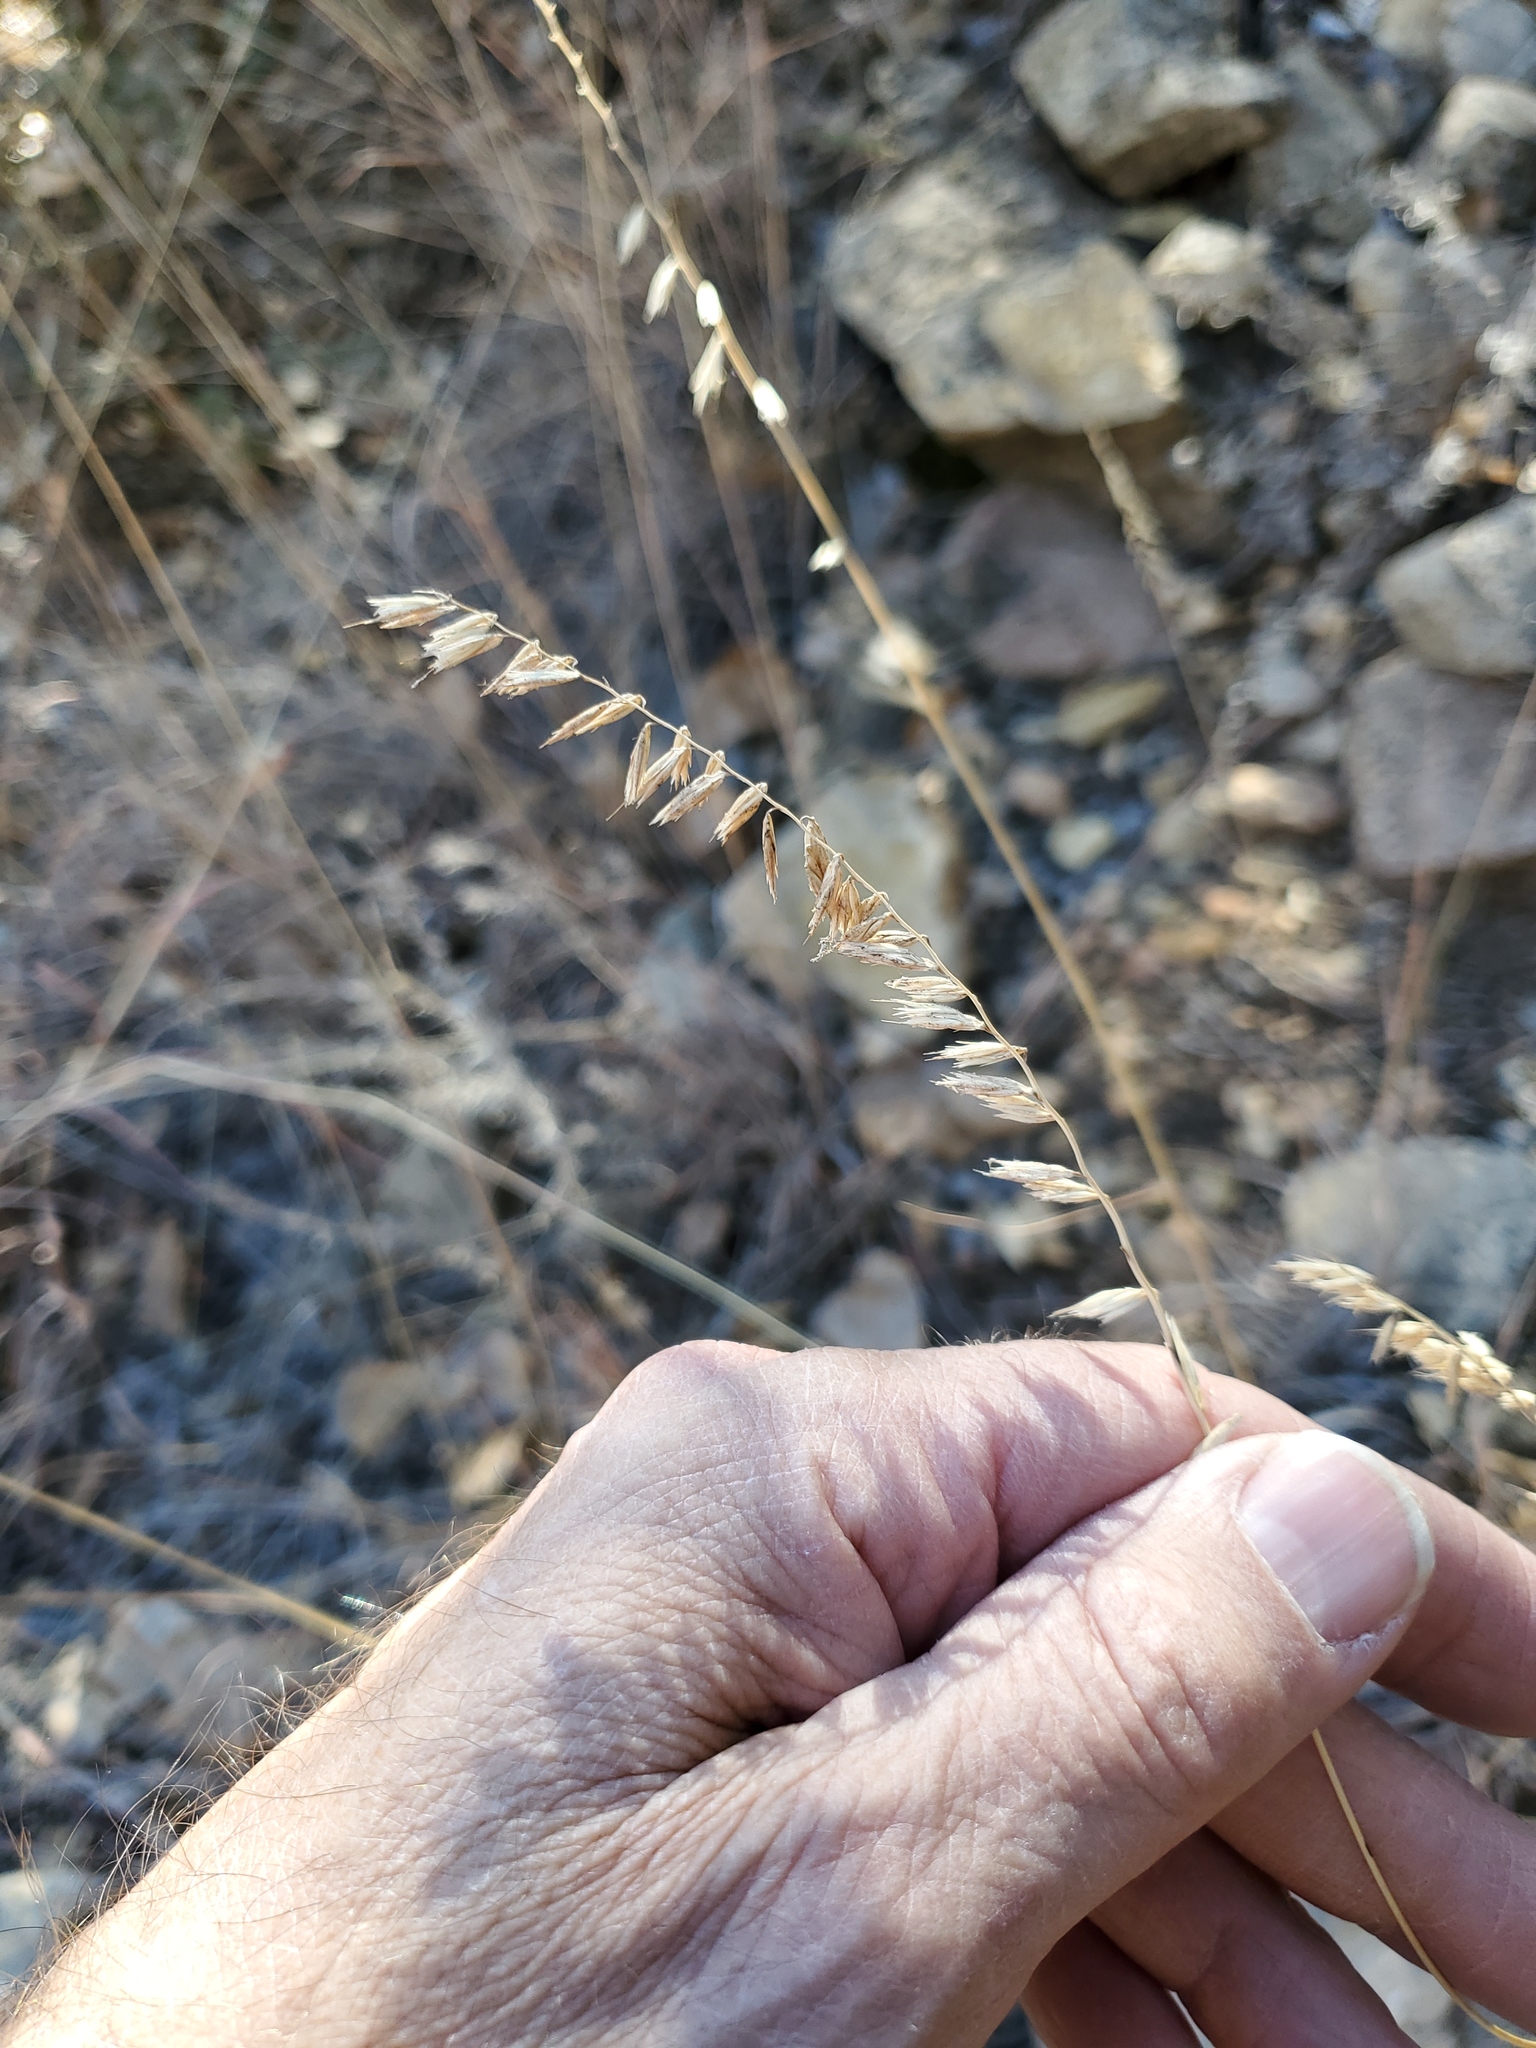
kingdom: Plantae
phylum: Tracheophyta
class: Liliopsida
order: Poales
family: Poaceae
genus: Bouteloua
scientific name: Bouteloua curtipendula
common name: Side-oats grama
